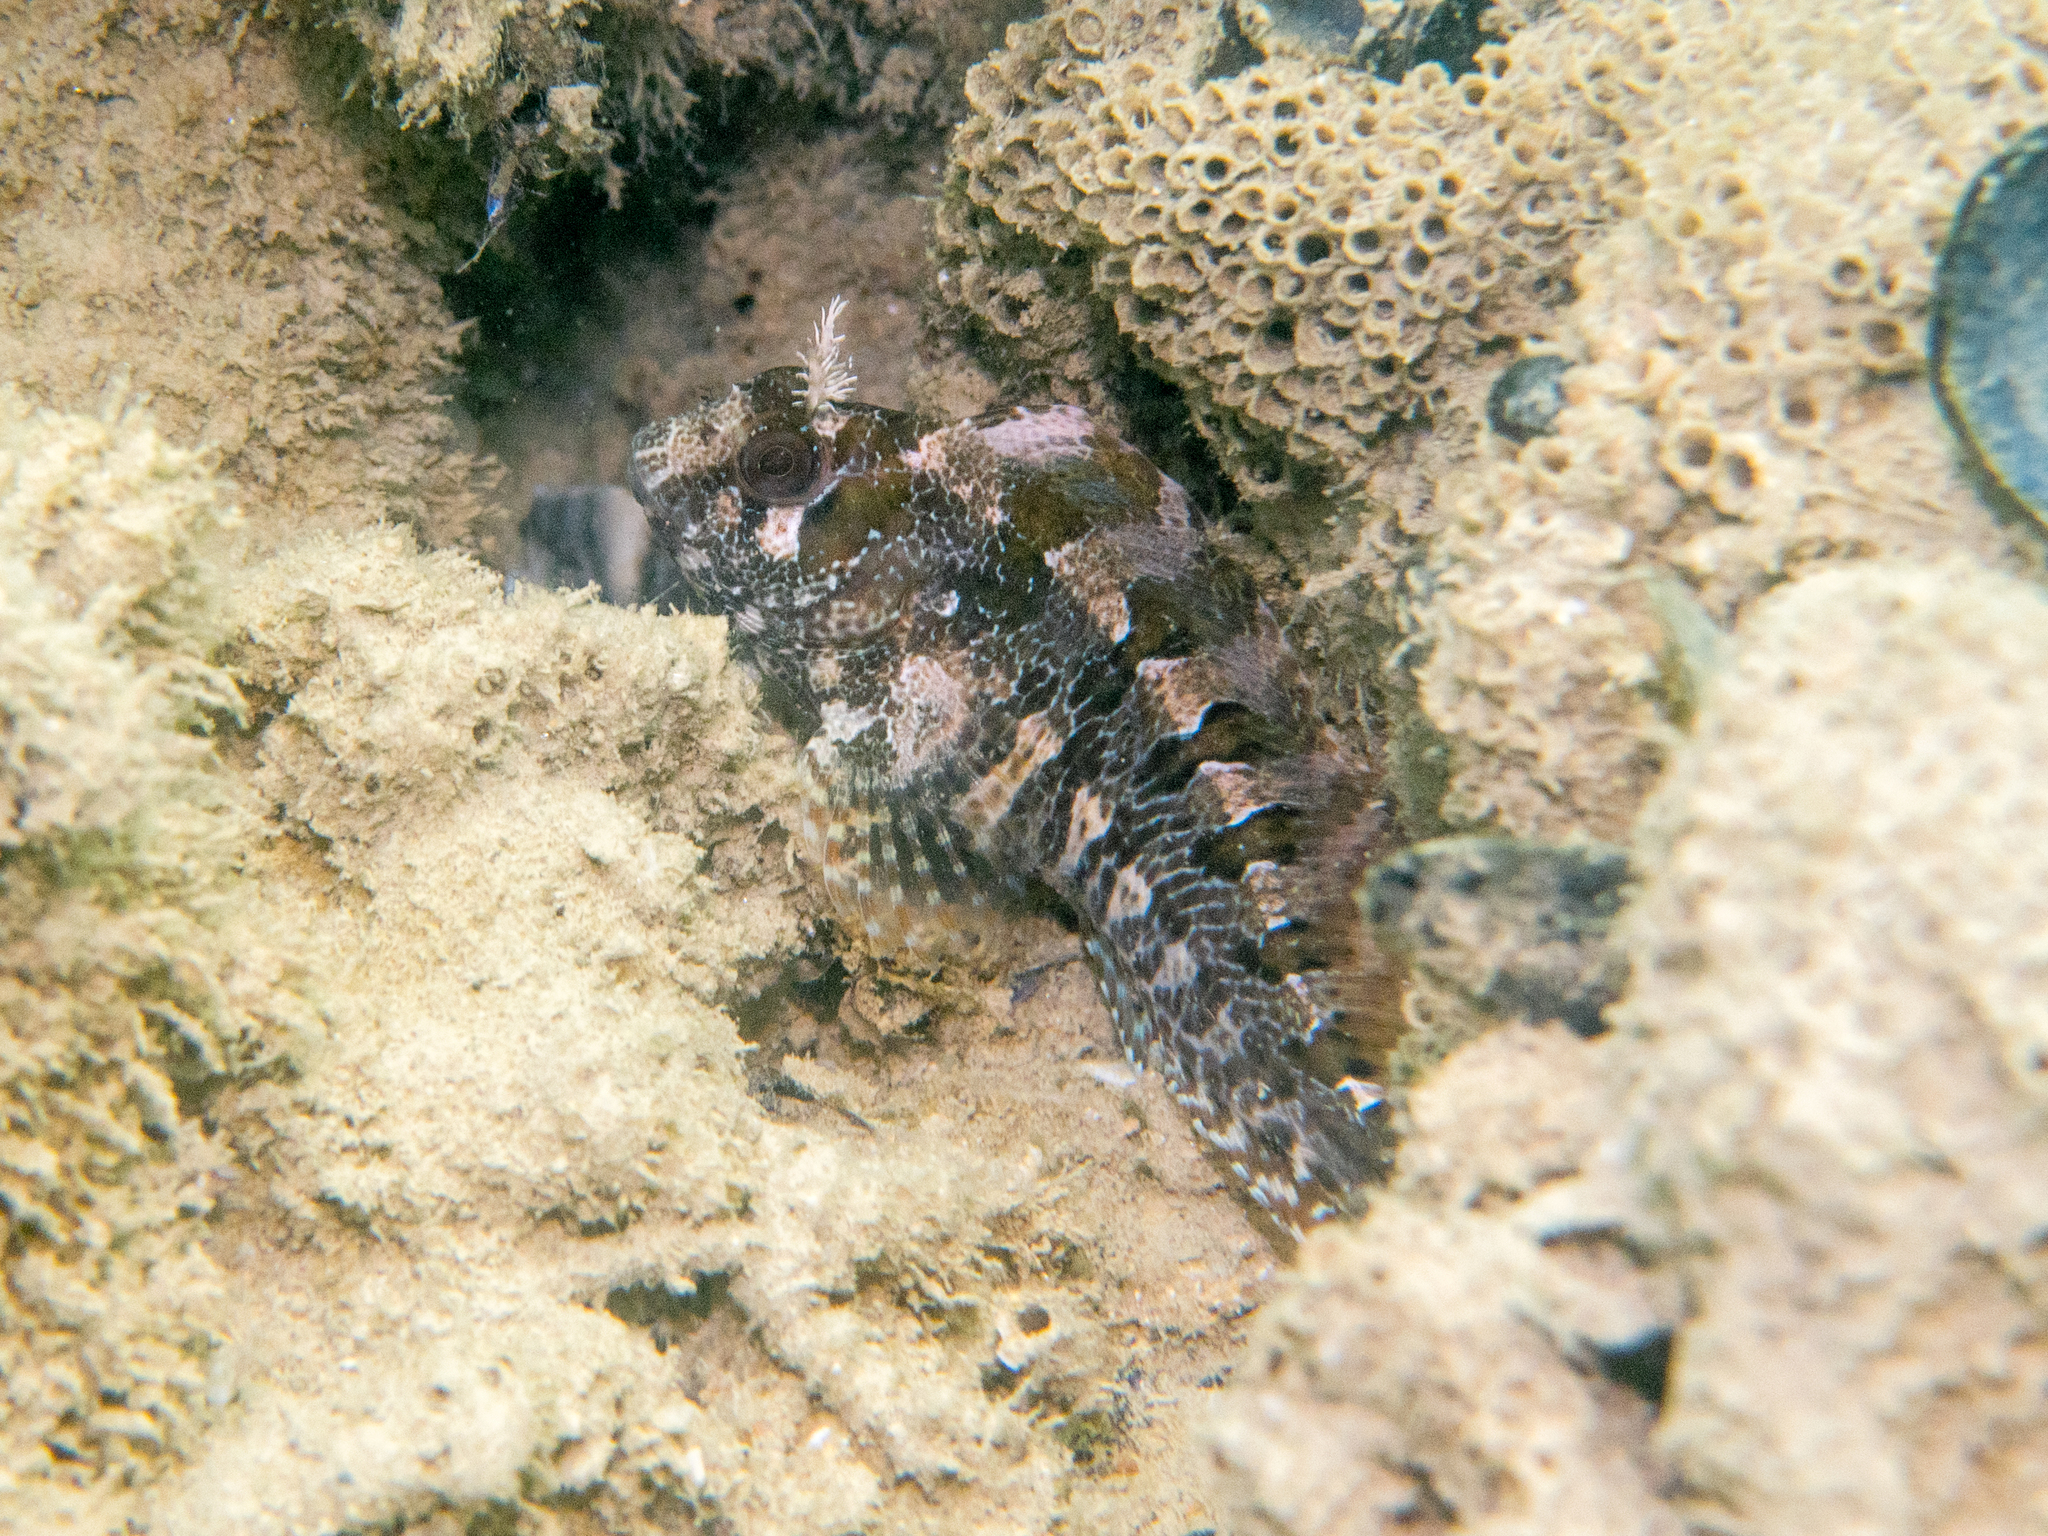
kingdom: Animalia
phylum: Chordata
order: Perciformes
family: Blenniidae
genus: Parablennius
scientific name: Parablennius gattorugine
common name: Tompot blenny
